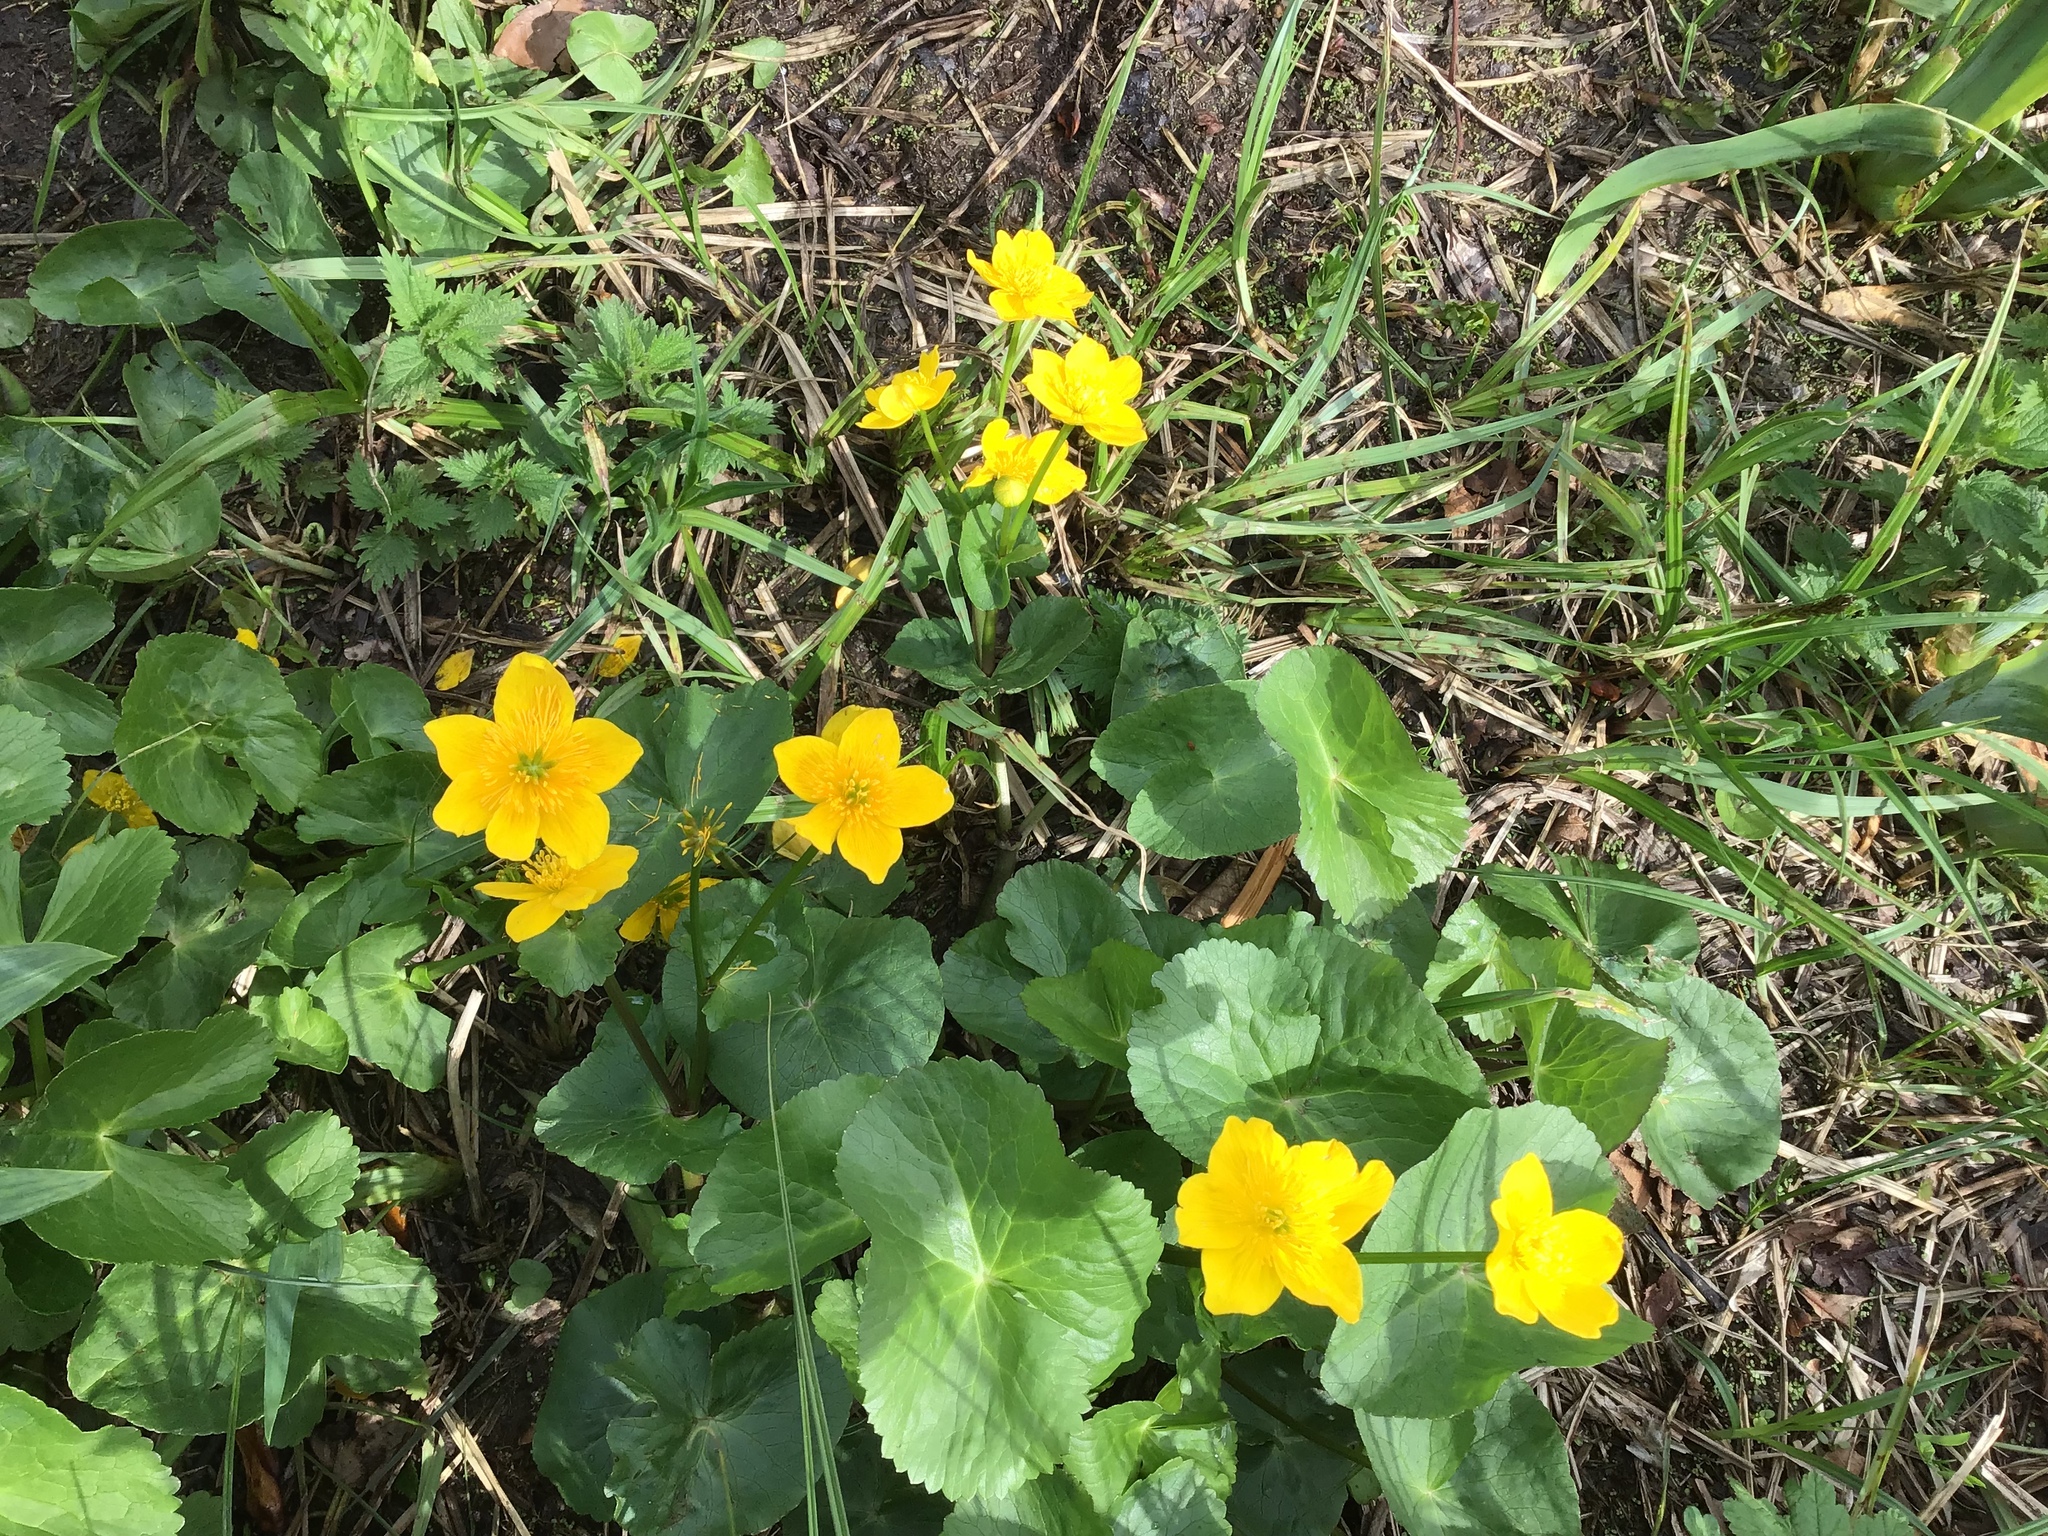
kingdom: Plantae
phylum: Tracheophyta
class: Magnoliopsida
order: Ranunculales
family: Ranunculaceae
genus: Caltha
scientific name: Caltha palustris
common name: Marsh marigold
